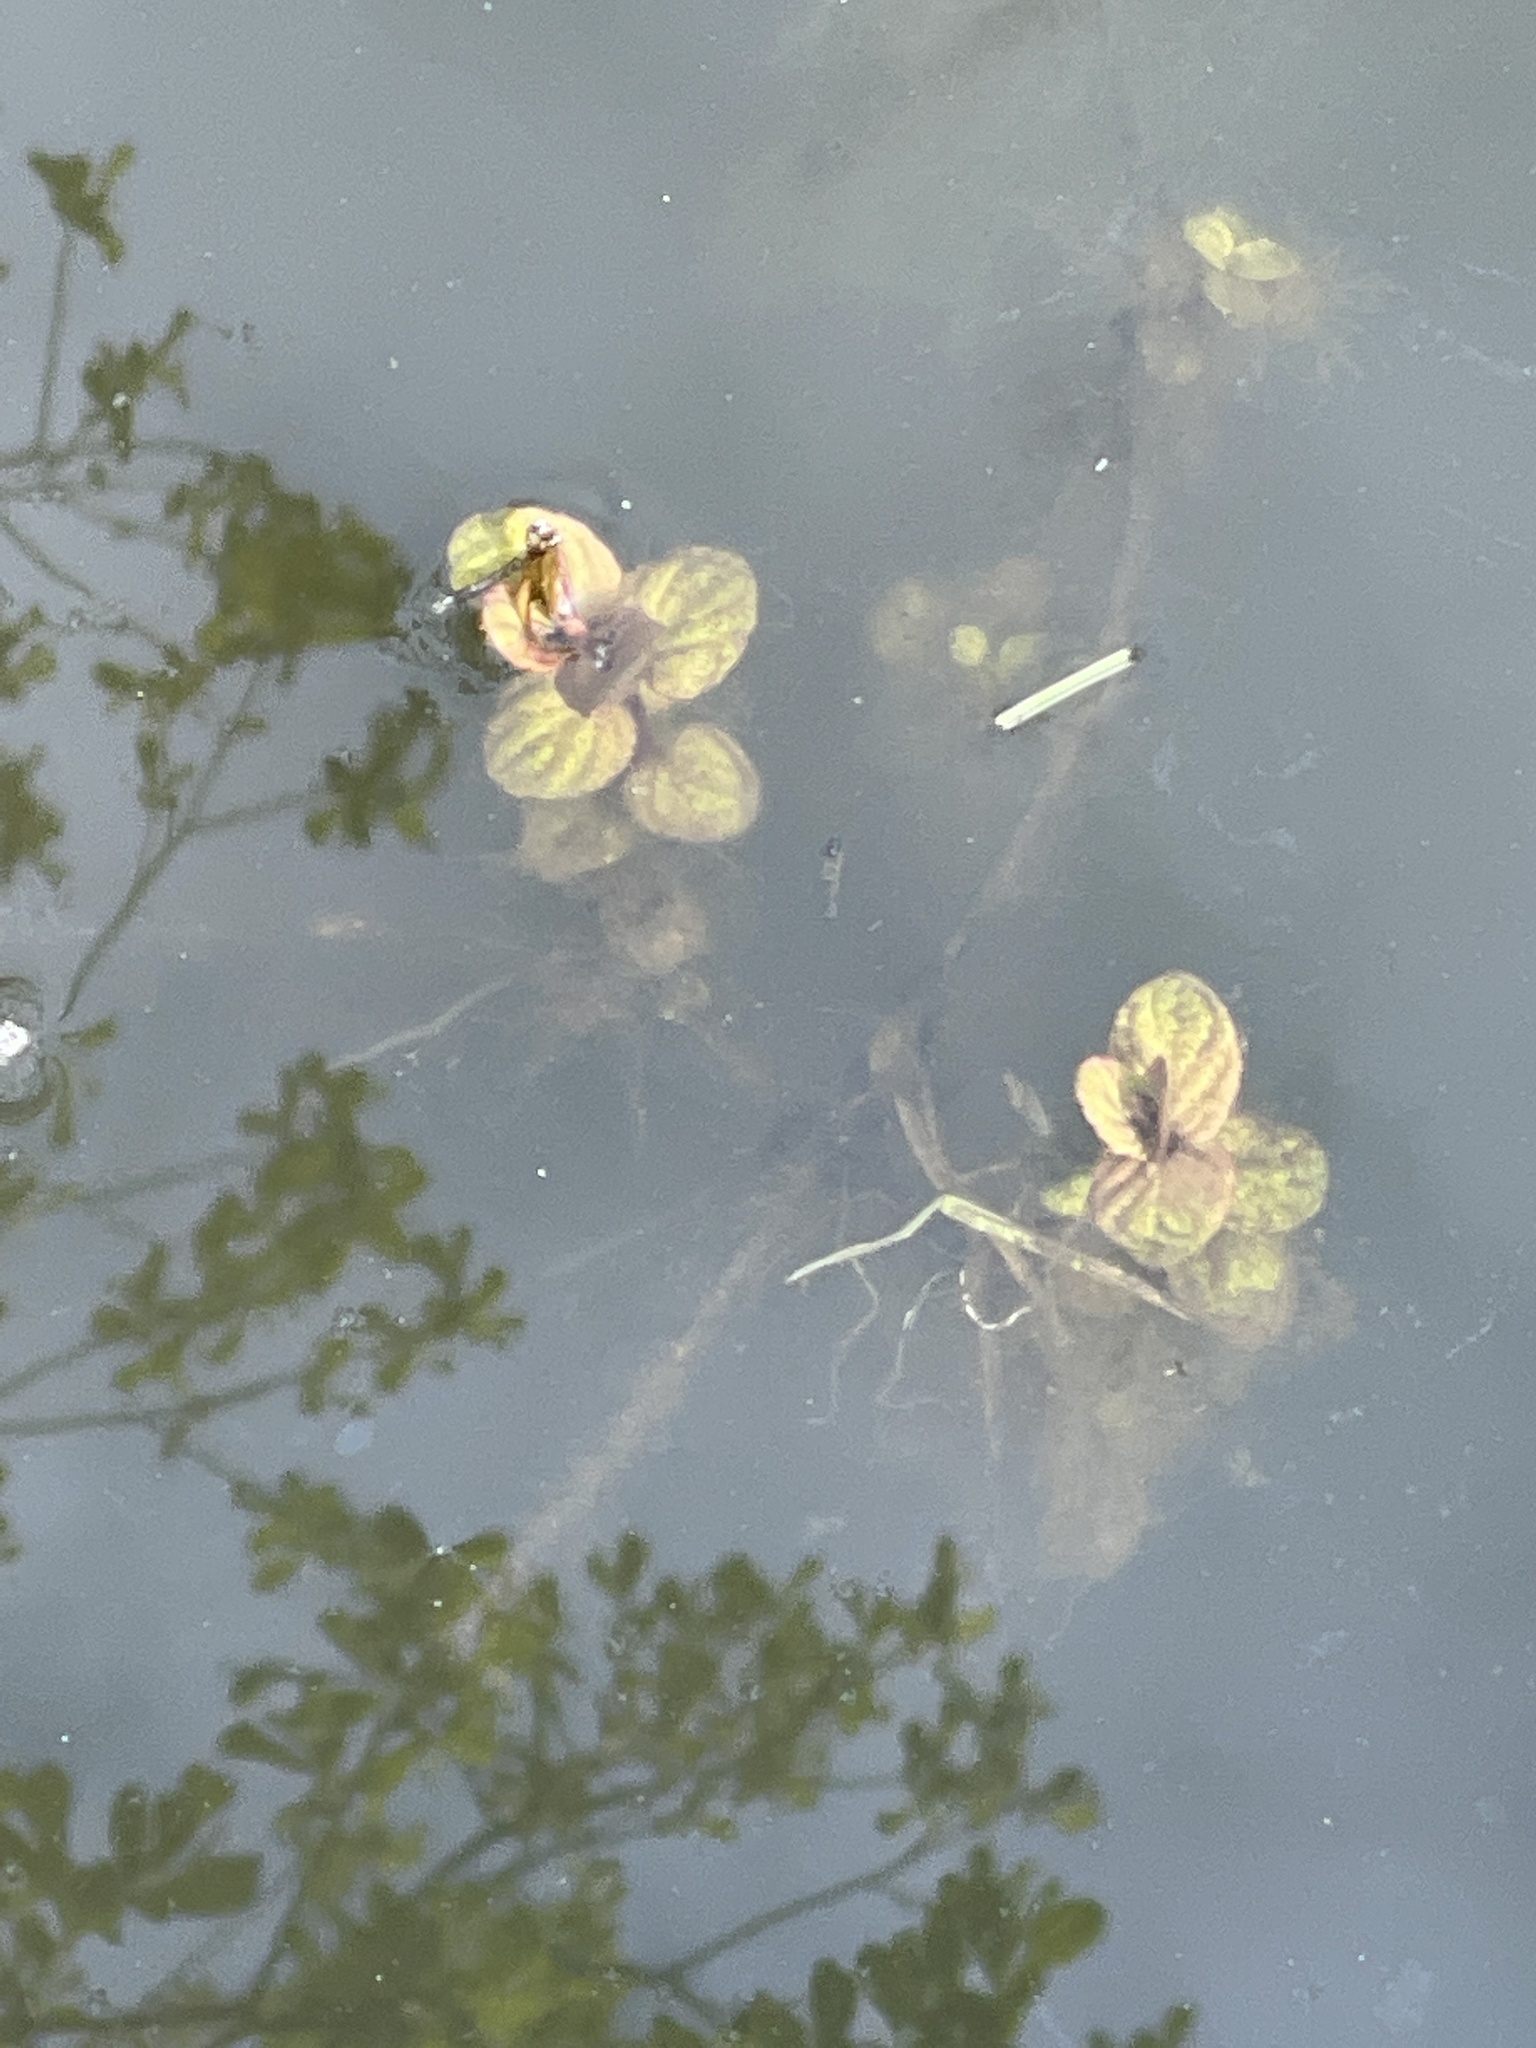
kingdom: Plantae
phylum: Tracheophyta
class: Magnoliopsida
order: Lamiales
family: Lamiaceae
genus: Mentha
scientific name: Mentha aquatica
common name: Water mint
